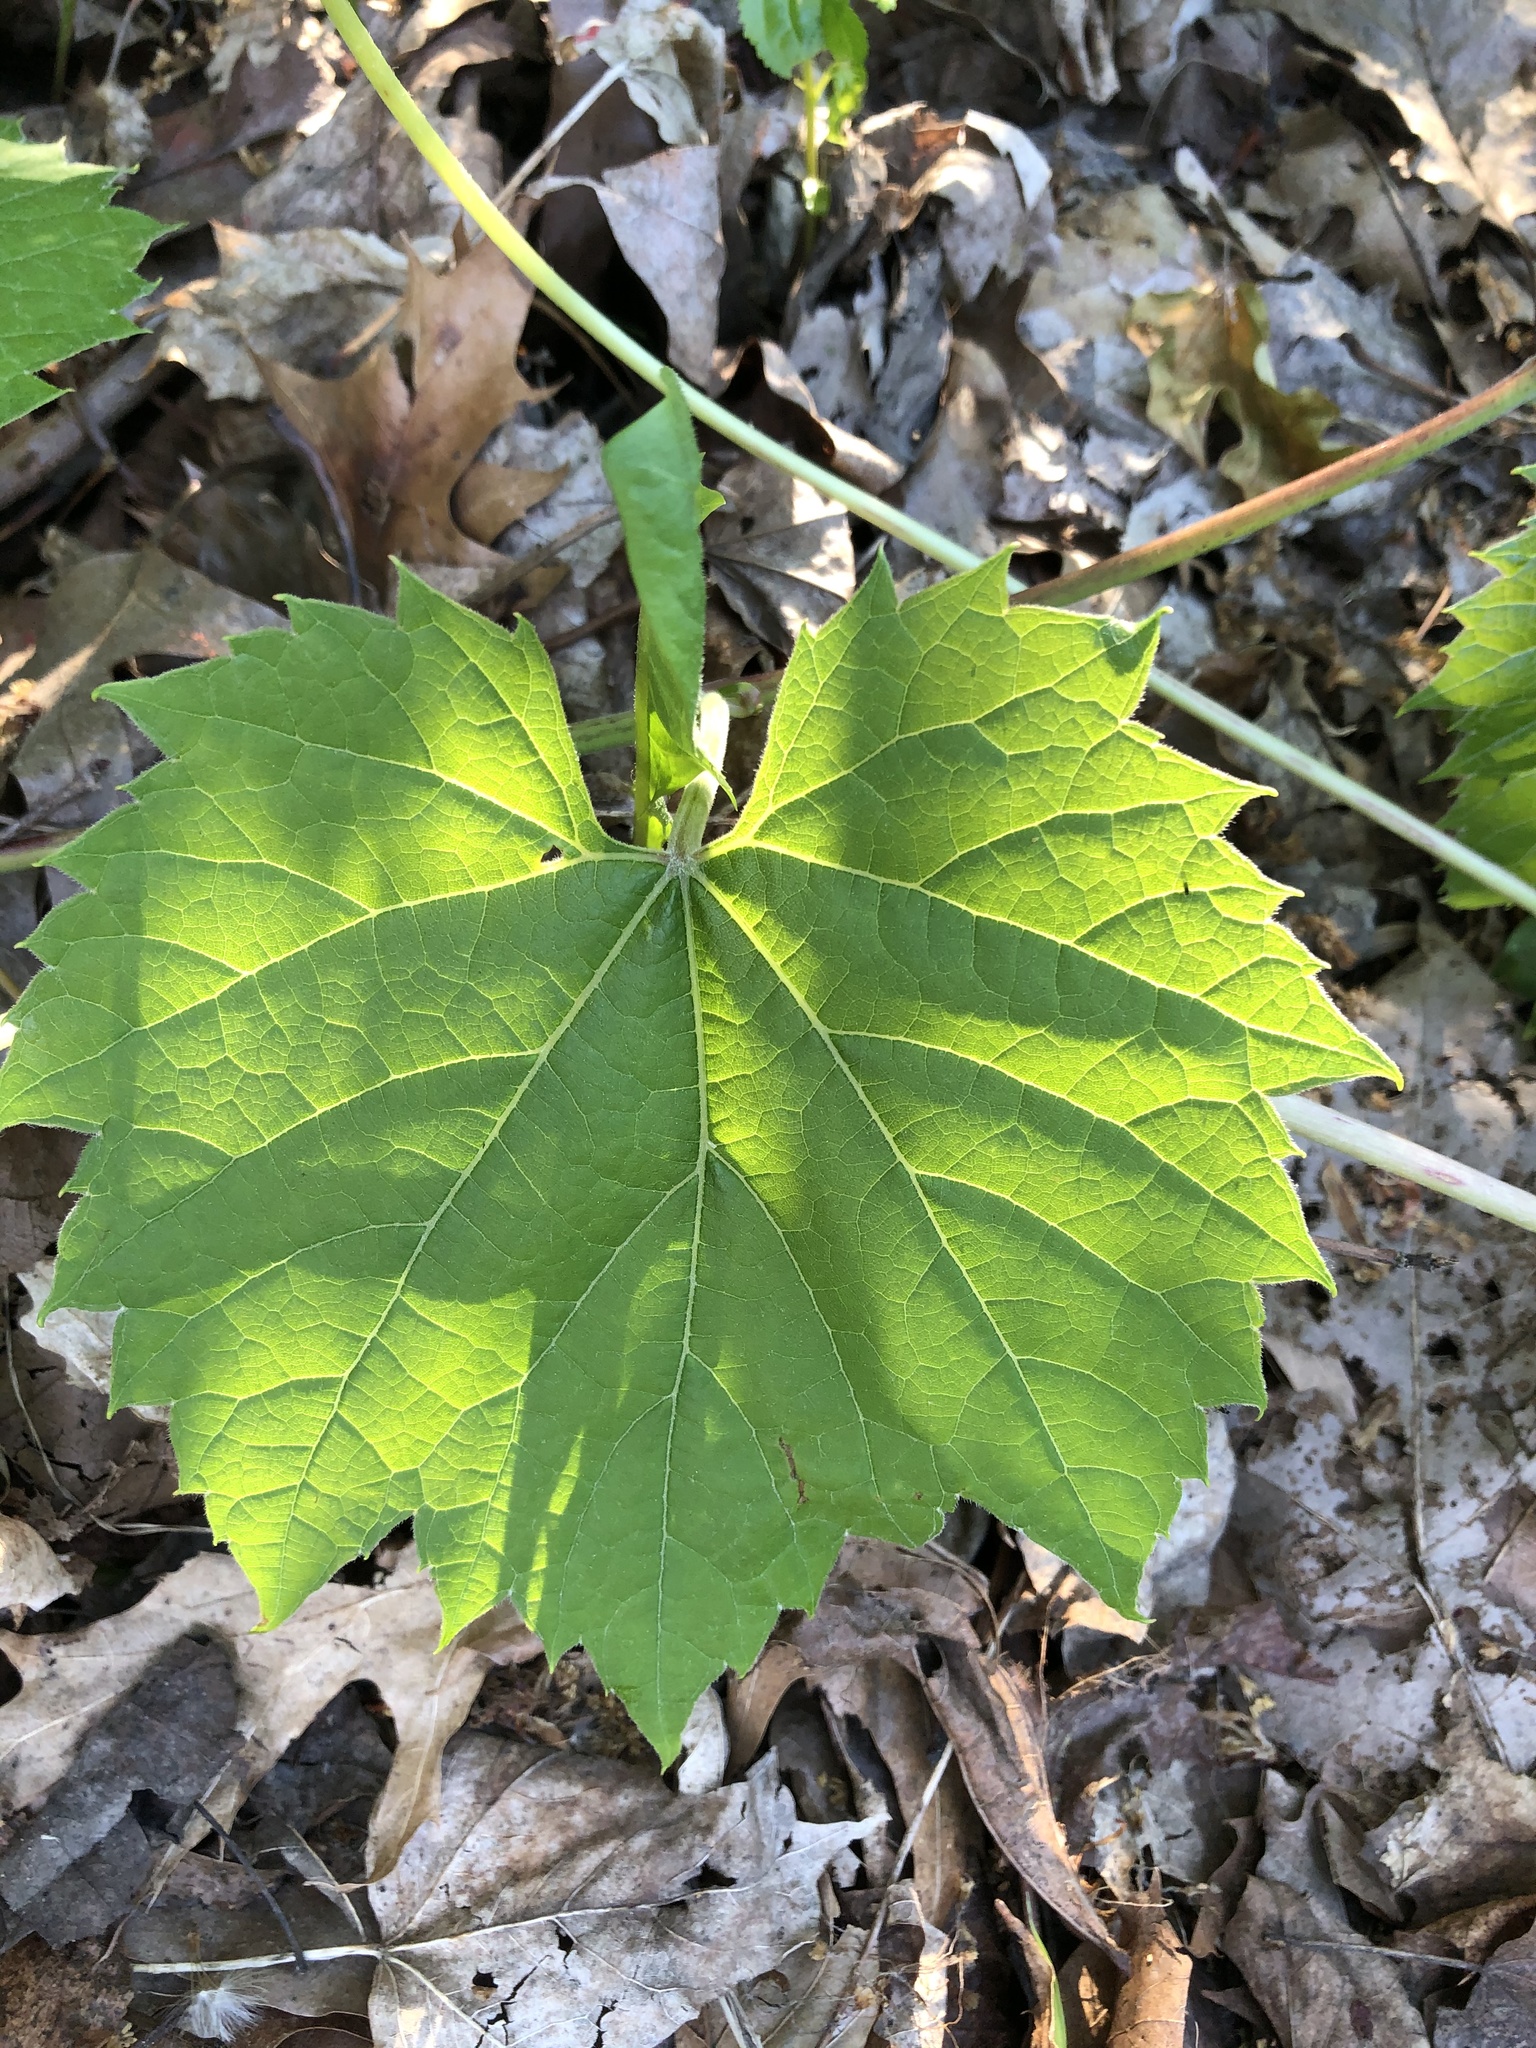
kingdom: Plantae
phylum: Tracheophyta
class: Magnoliopsida
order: Vitales
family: Vitaceae
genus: Vitis
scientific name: Vitis riparia
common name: Frost grape
